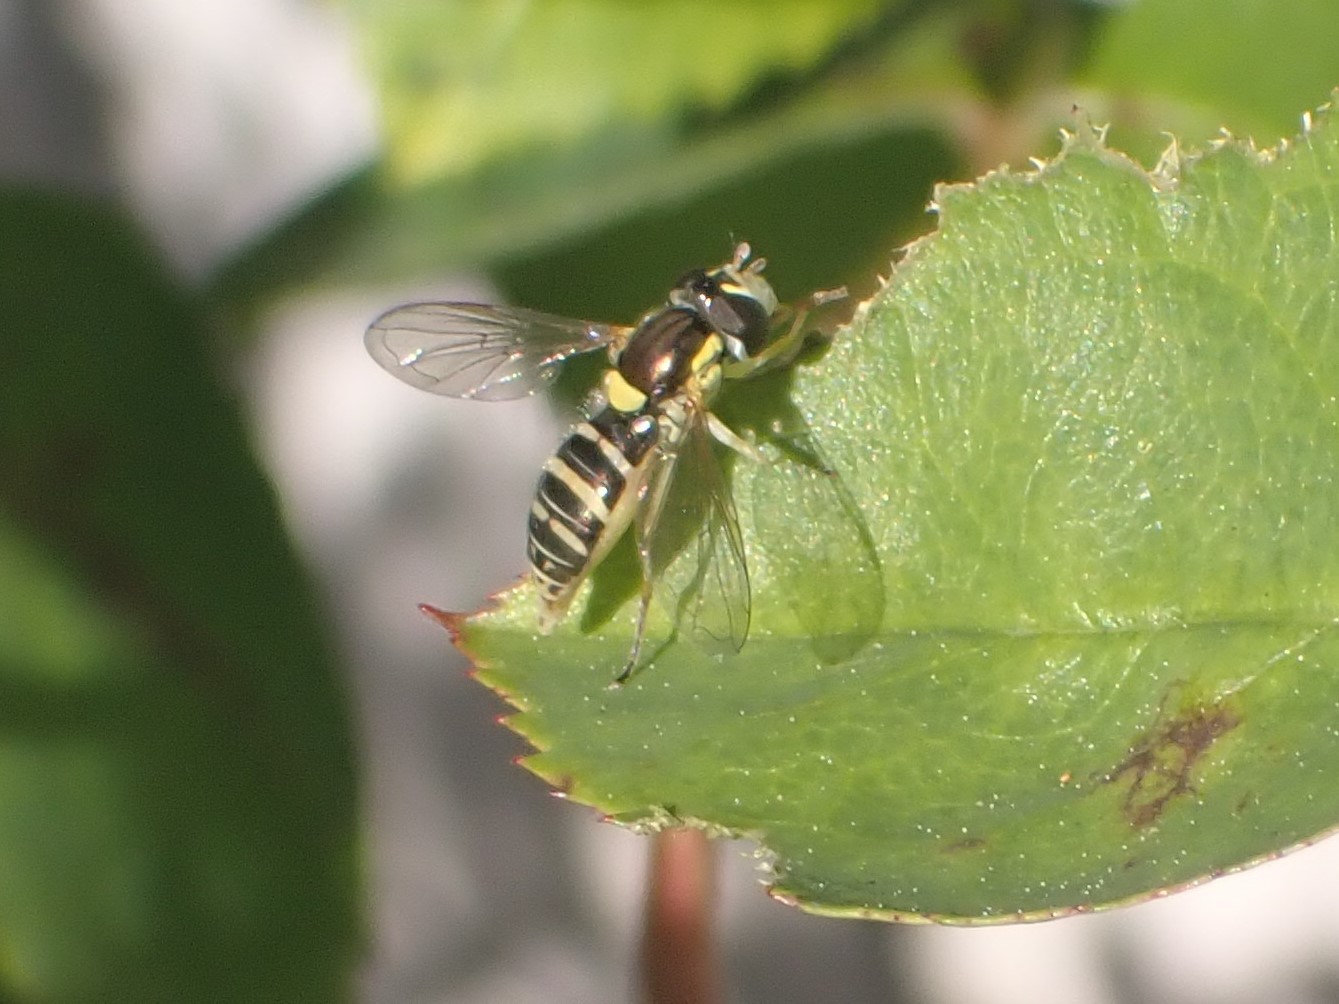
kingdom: Animalia
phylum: Arthropoda
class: Insecta
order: Diptera
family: Syrphidae
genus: Sphaerophoria
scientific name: Sphaerophoria sulphuripes
